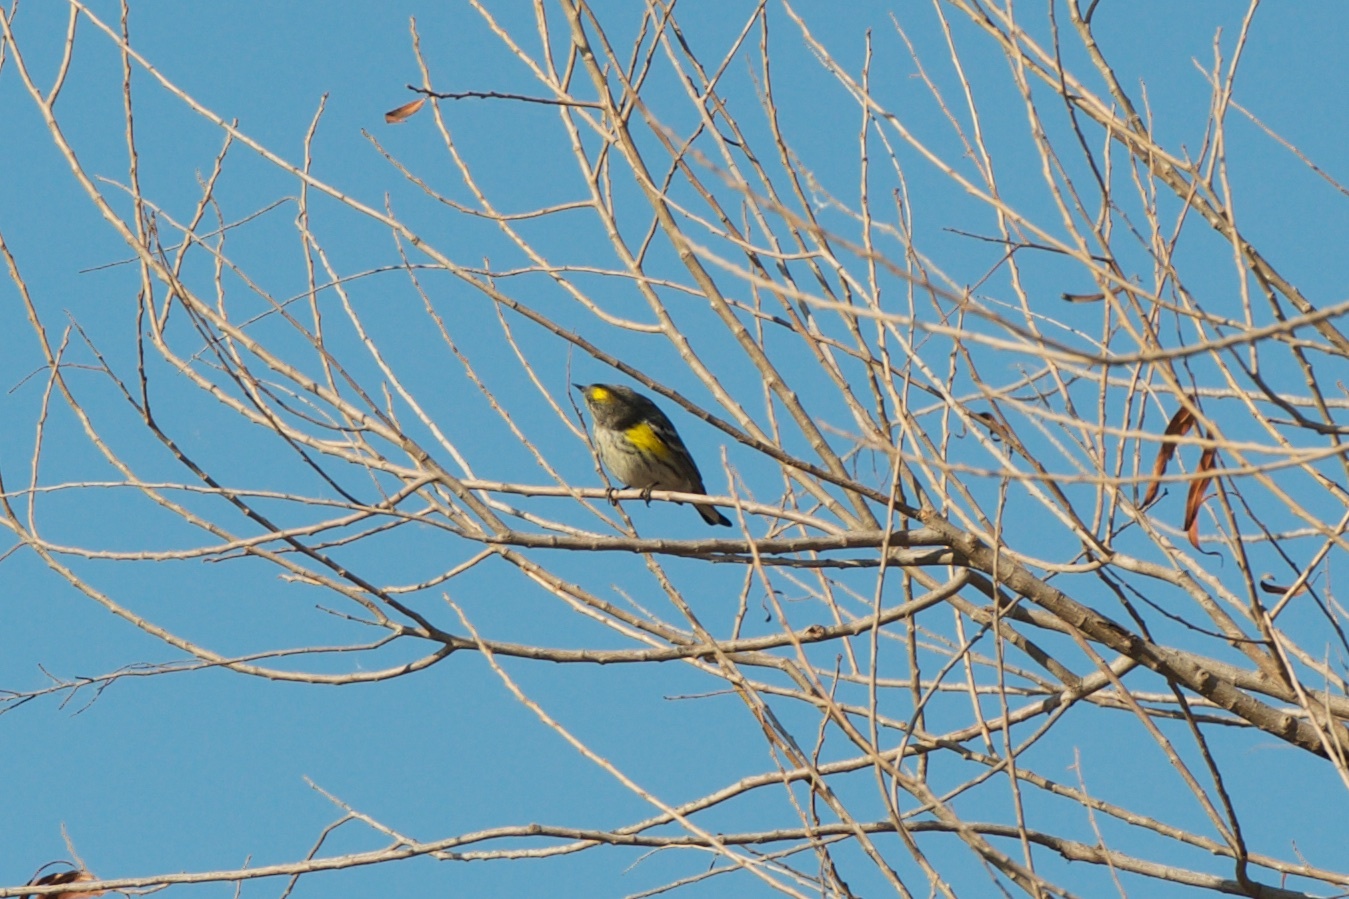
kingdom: Animalia
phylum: Chordata
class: Aves
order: Passeriformes
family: Parulidae
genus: Setophaga
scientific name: Setophaga coronata
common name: Myrtle warbler
